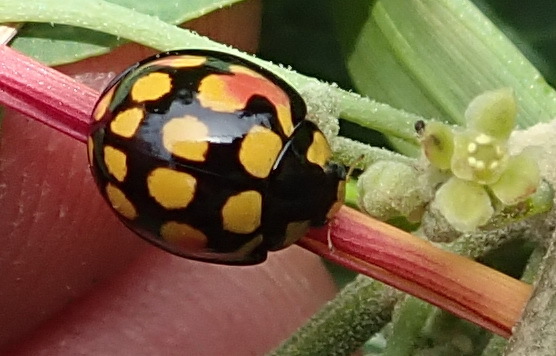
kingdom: Animalia
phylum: Arthropoda
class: Insecta
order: Coleoptera
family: Coccinellidae
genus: Cheilomenes
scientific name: Cheilomenes sulphurea
